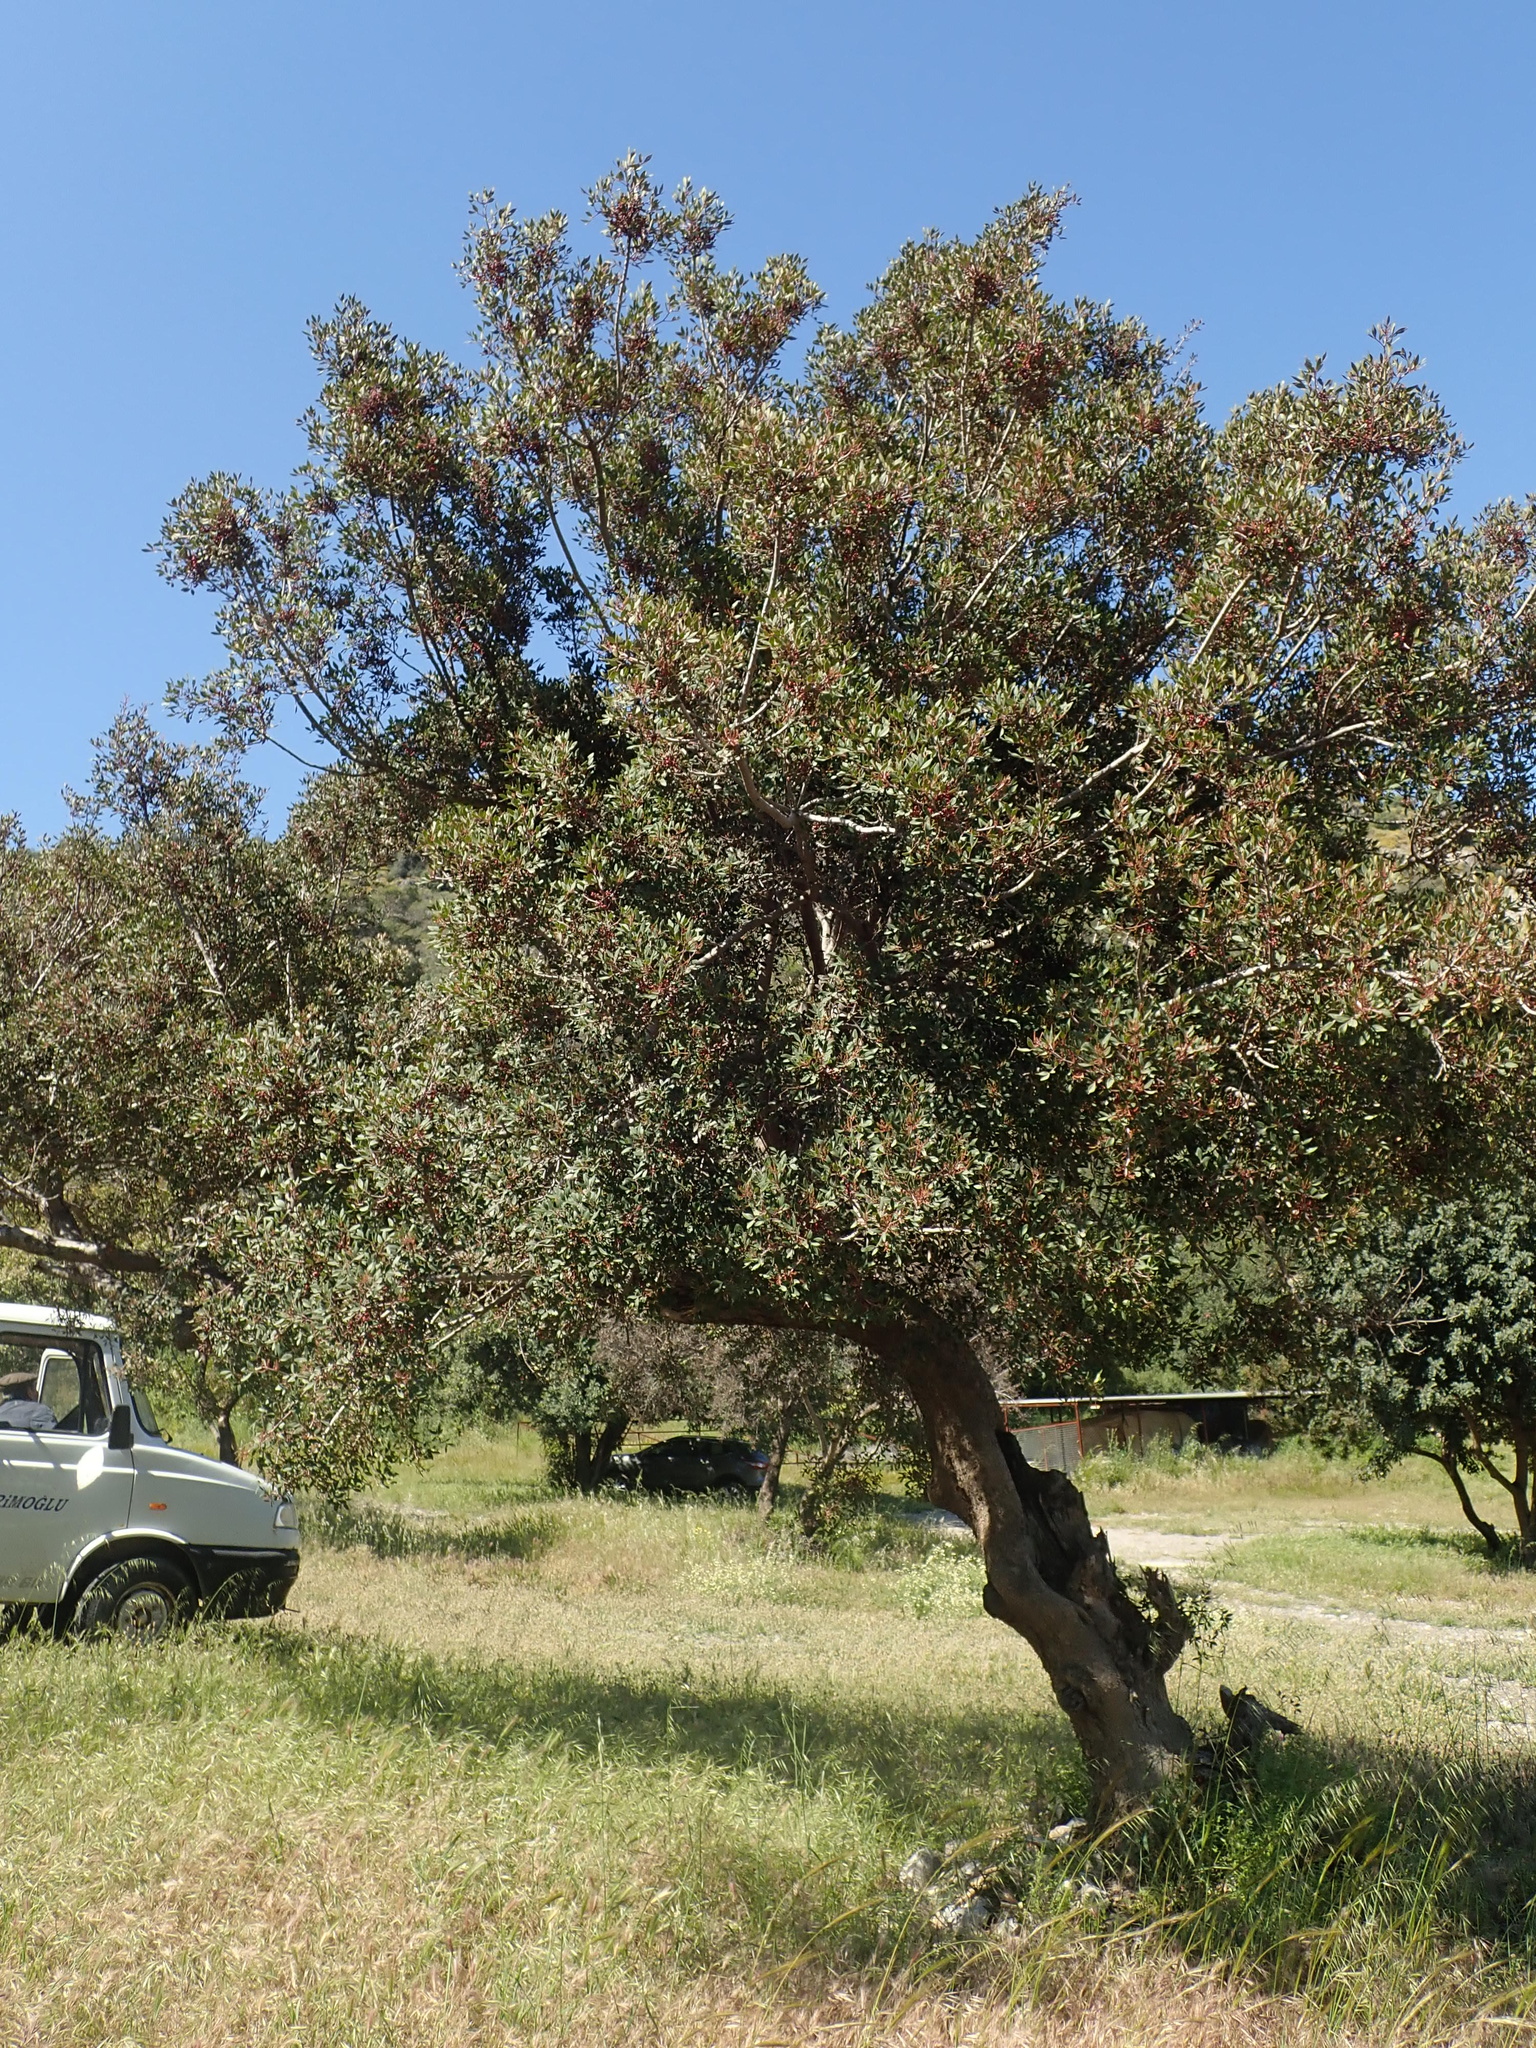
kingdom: Plantae
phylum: Tracheophyta
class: Magnoliopsida
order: Sapindales
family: Anacardiaceae
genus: Pistacia
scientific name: Pistacia lentiscus
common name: Lentisk
